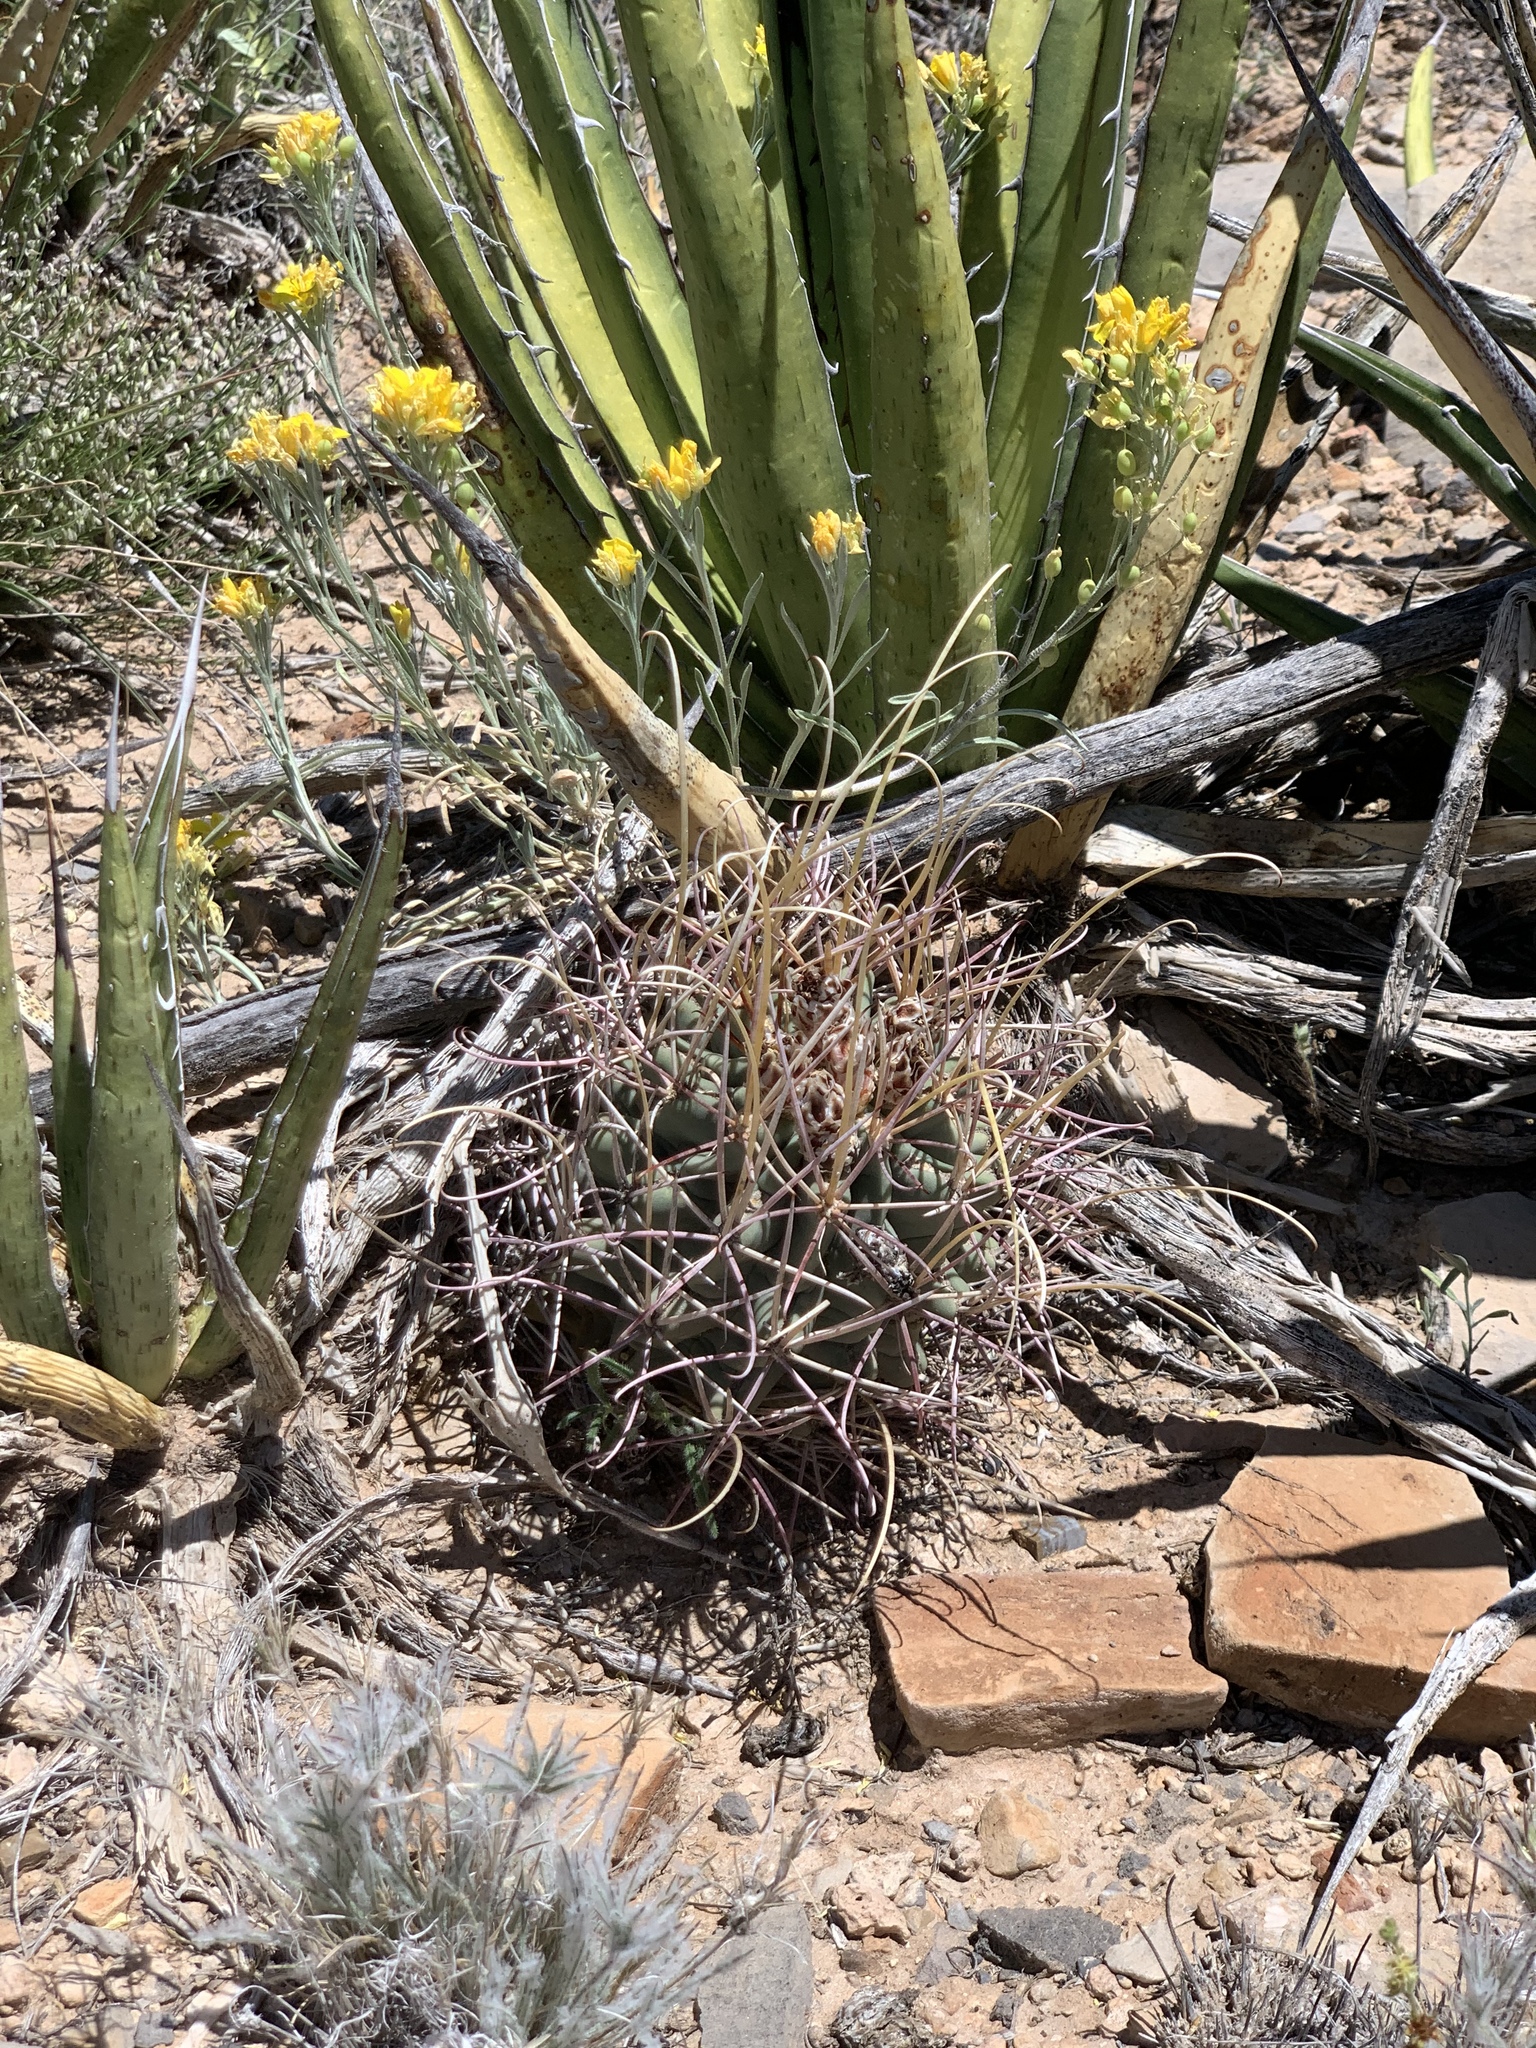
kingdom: Plantae
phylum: Tracheophyta
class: Magnoliopsida
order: Caryophyllales
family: Cactaceae
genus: Ferocactus
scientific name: Ferocactus uncinatus
